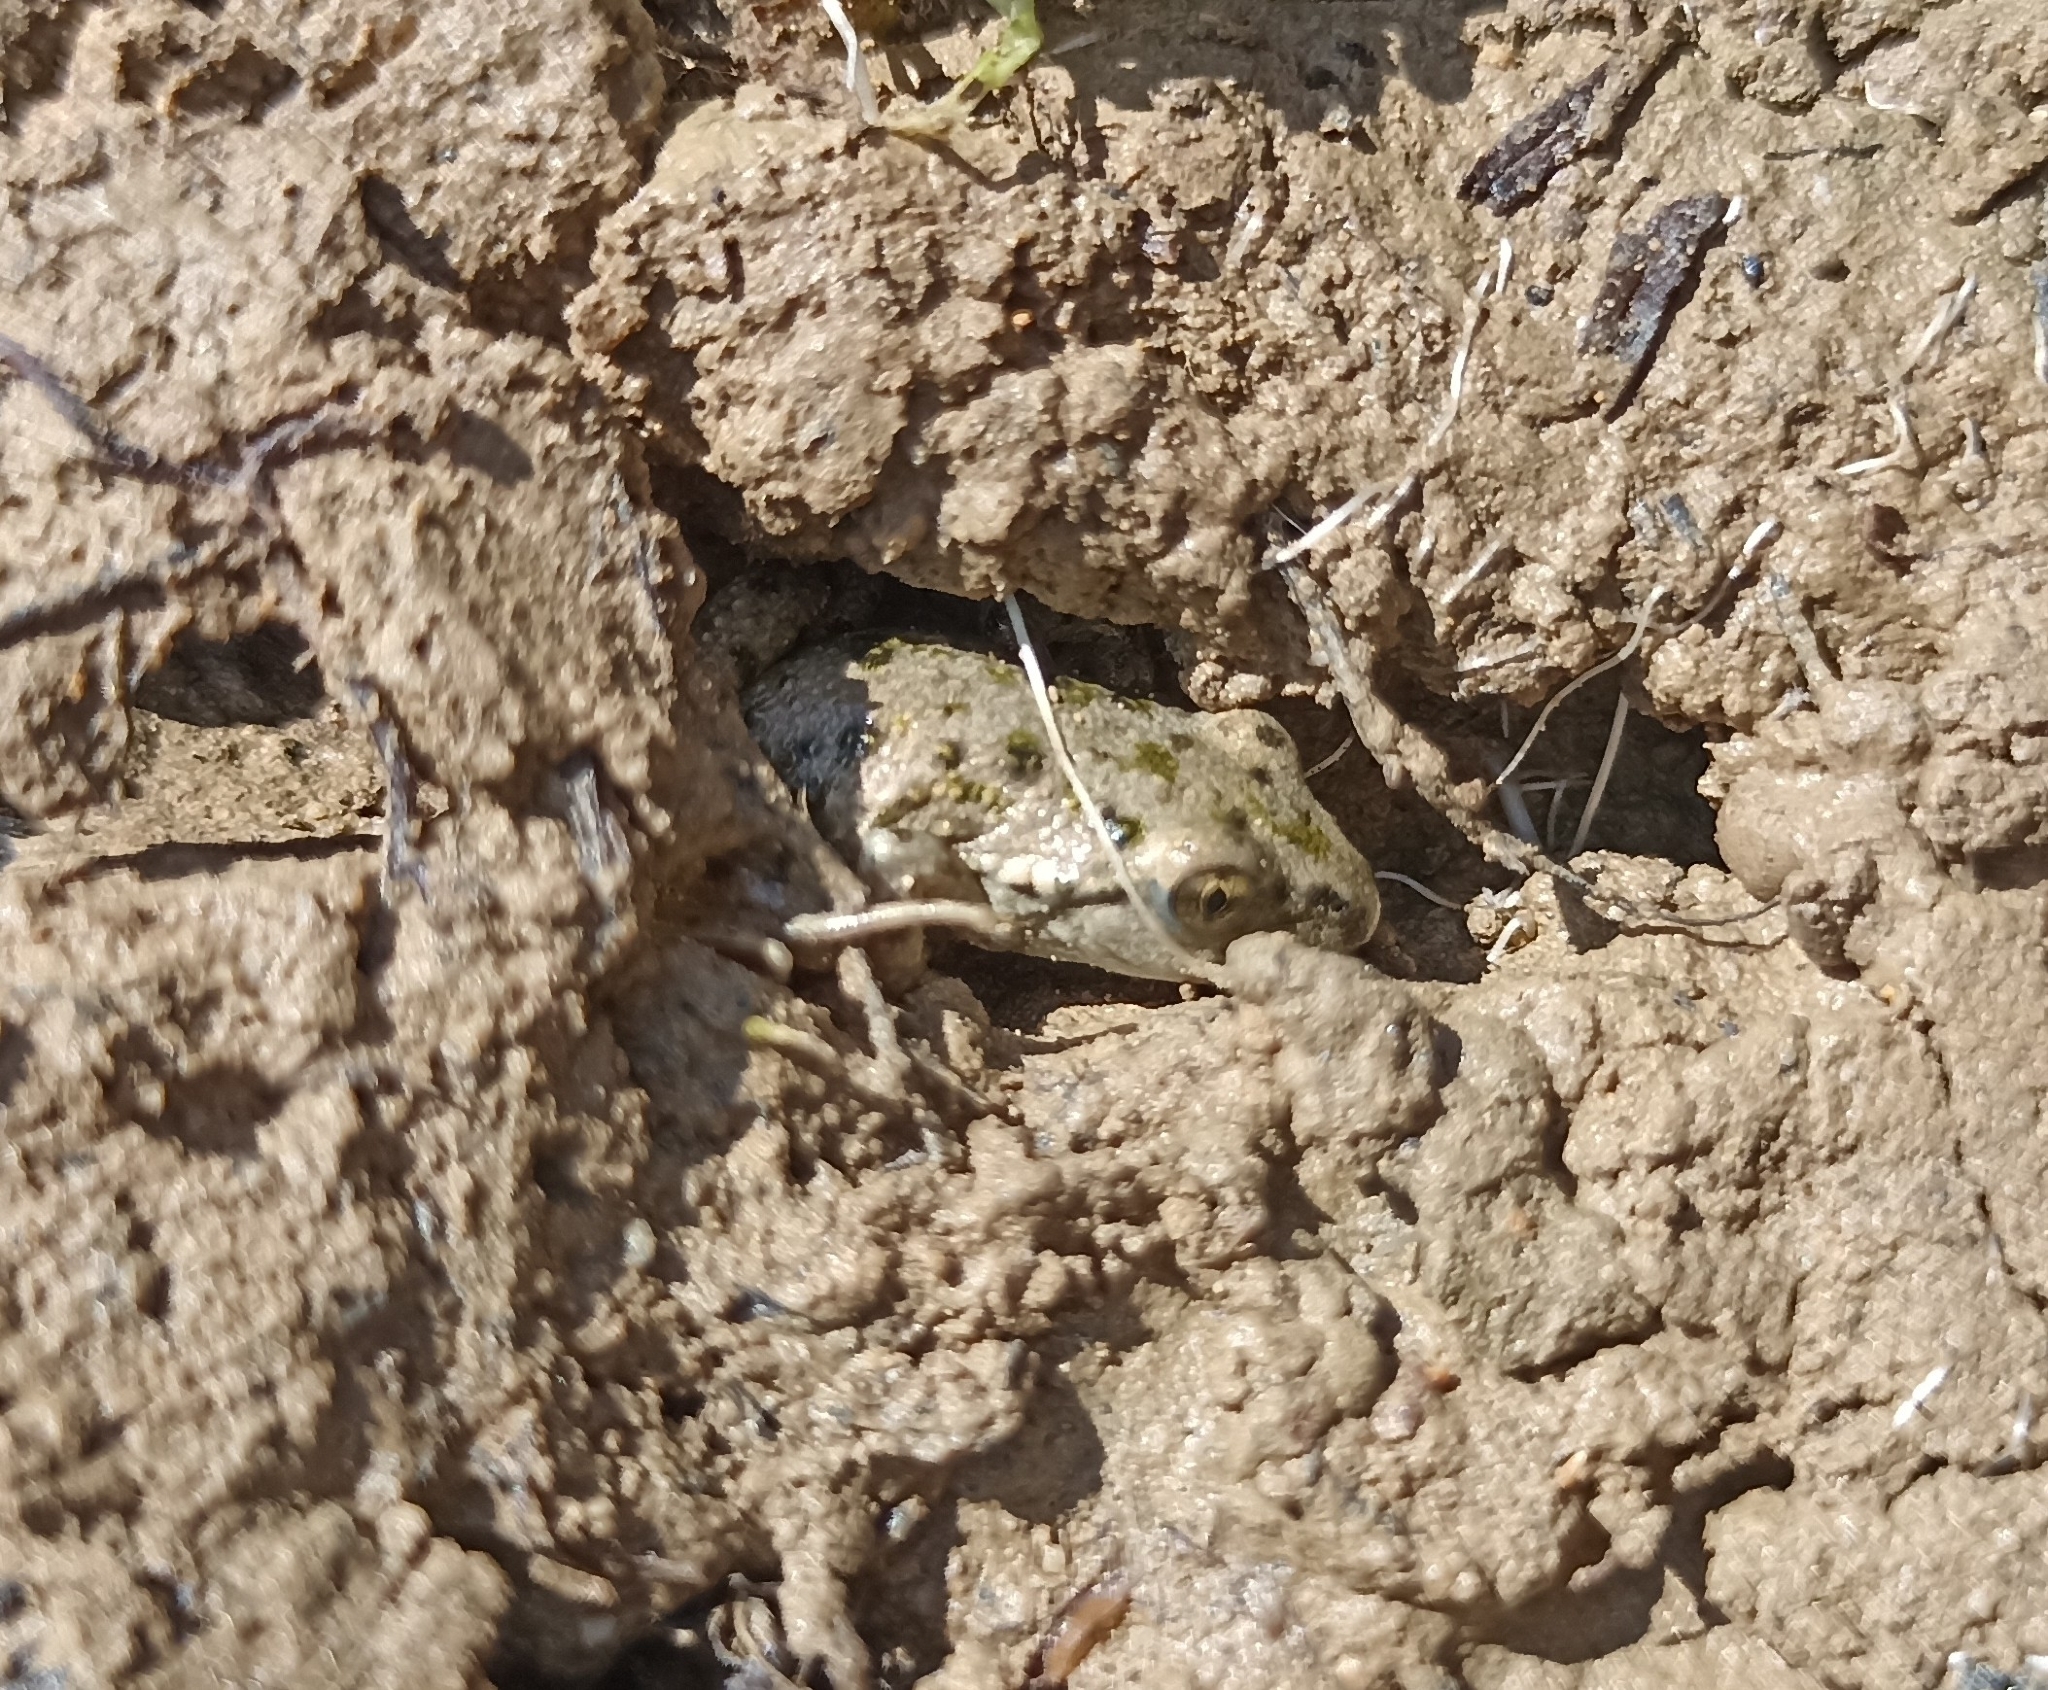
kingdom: Animalia
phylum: Chordata
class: Amphibia
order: Anura
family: Pelodytidae
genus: Pelodytes
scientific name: Pelodytes punctatus
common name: Parsley frog
